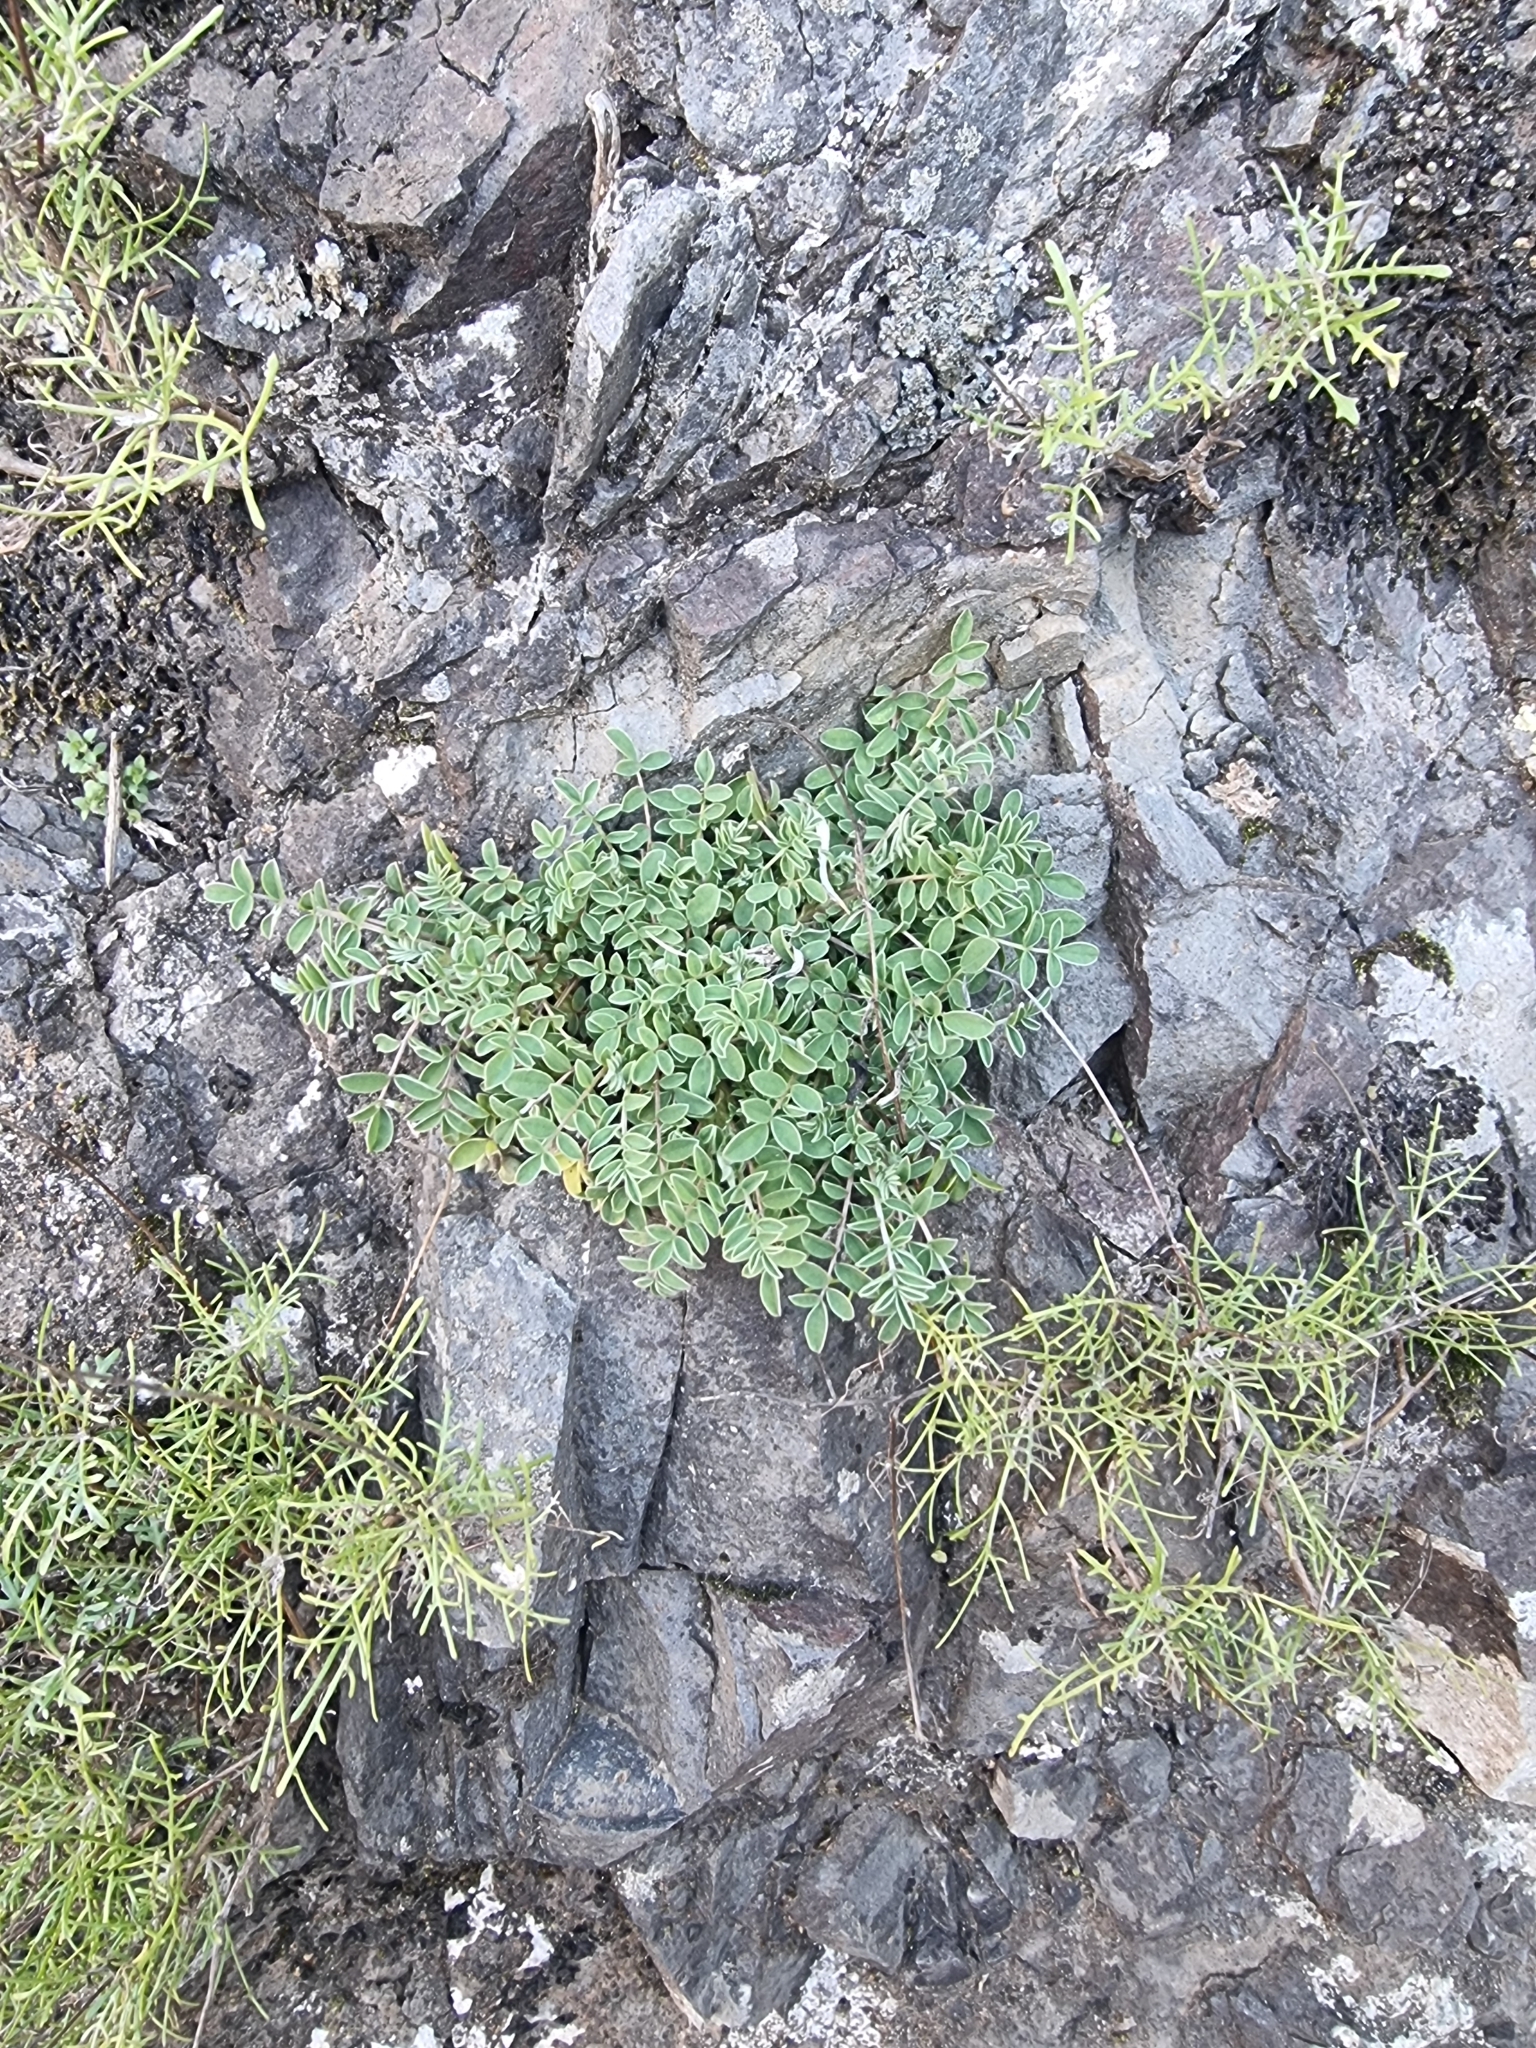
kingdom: Plantae
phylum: Tracheophyta
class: Magnoliopsida
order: Fabales
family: Fabaceae
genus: Anthyllis
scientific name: Anthyllis lemanniana
